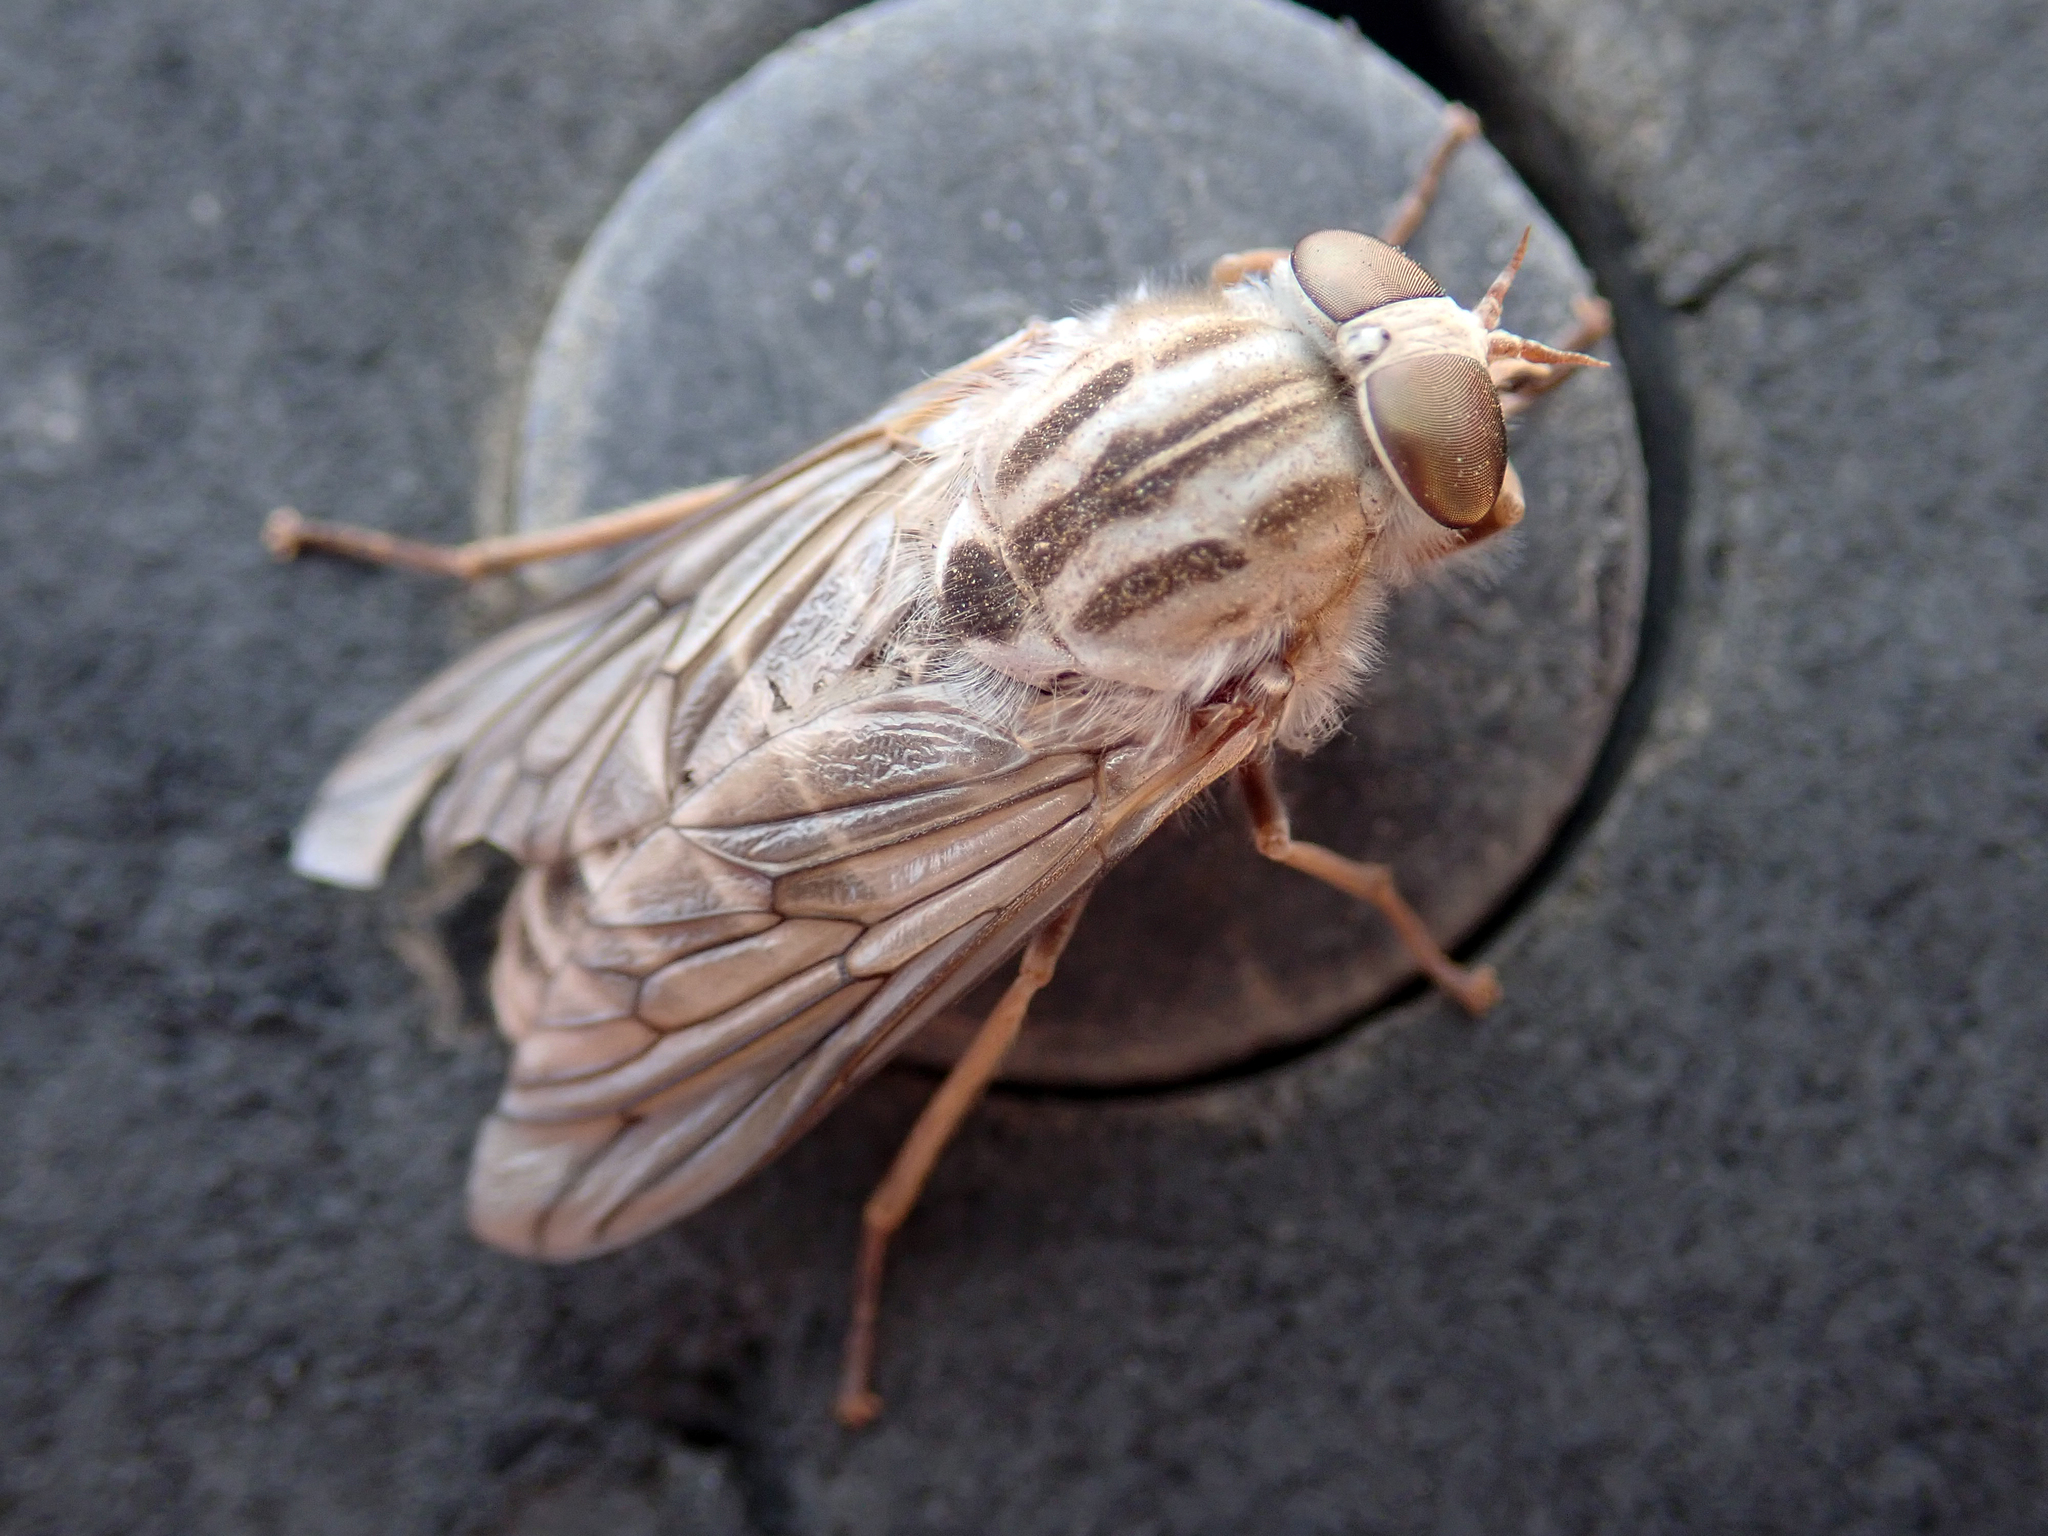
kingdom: Animalia
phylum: Arthropoda
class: Insecta
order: Diptera
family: Tabanidae
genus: Ectenopsis
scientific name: Ectenopsis mackerrasi
